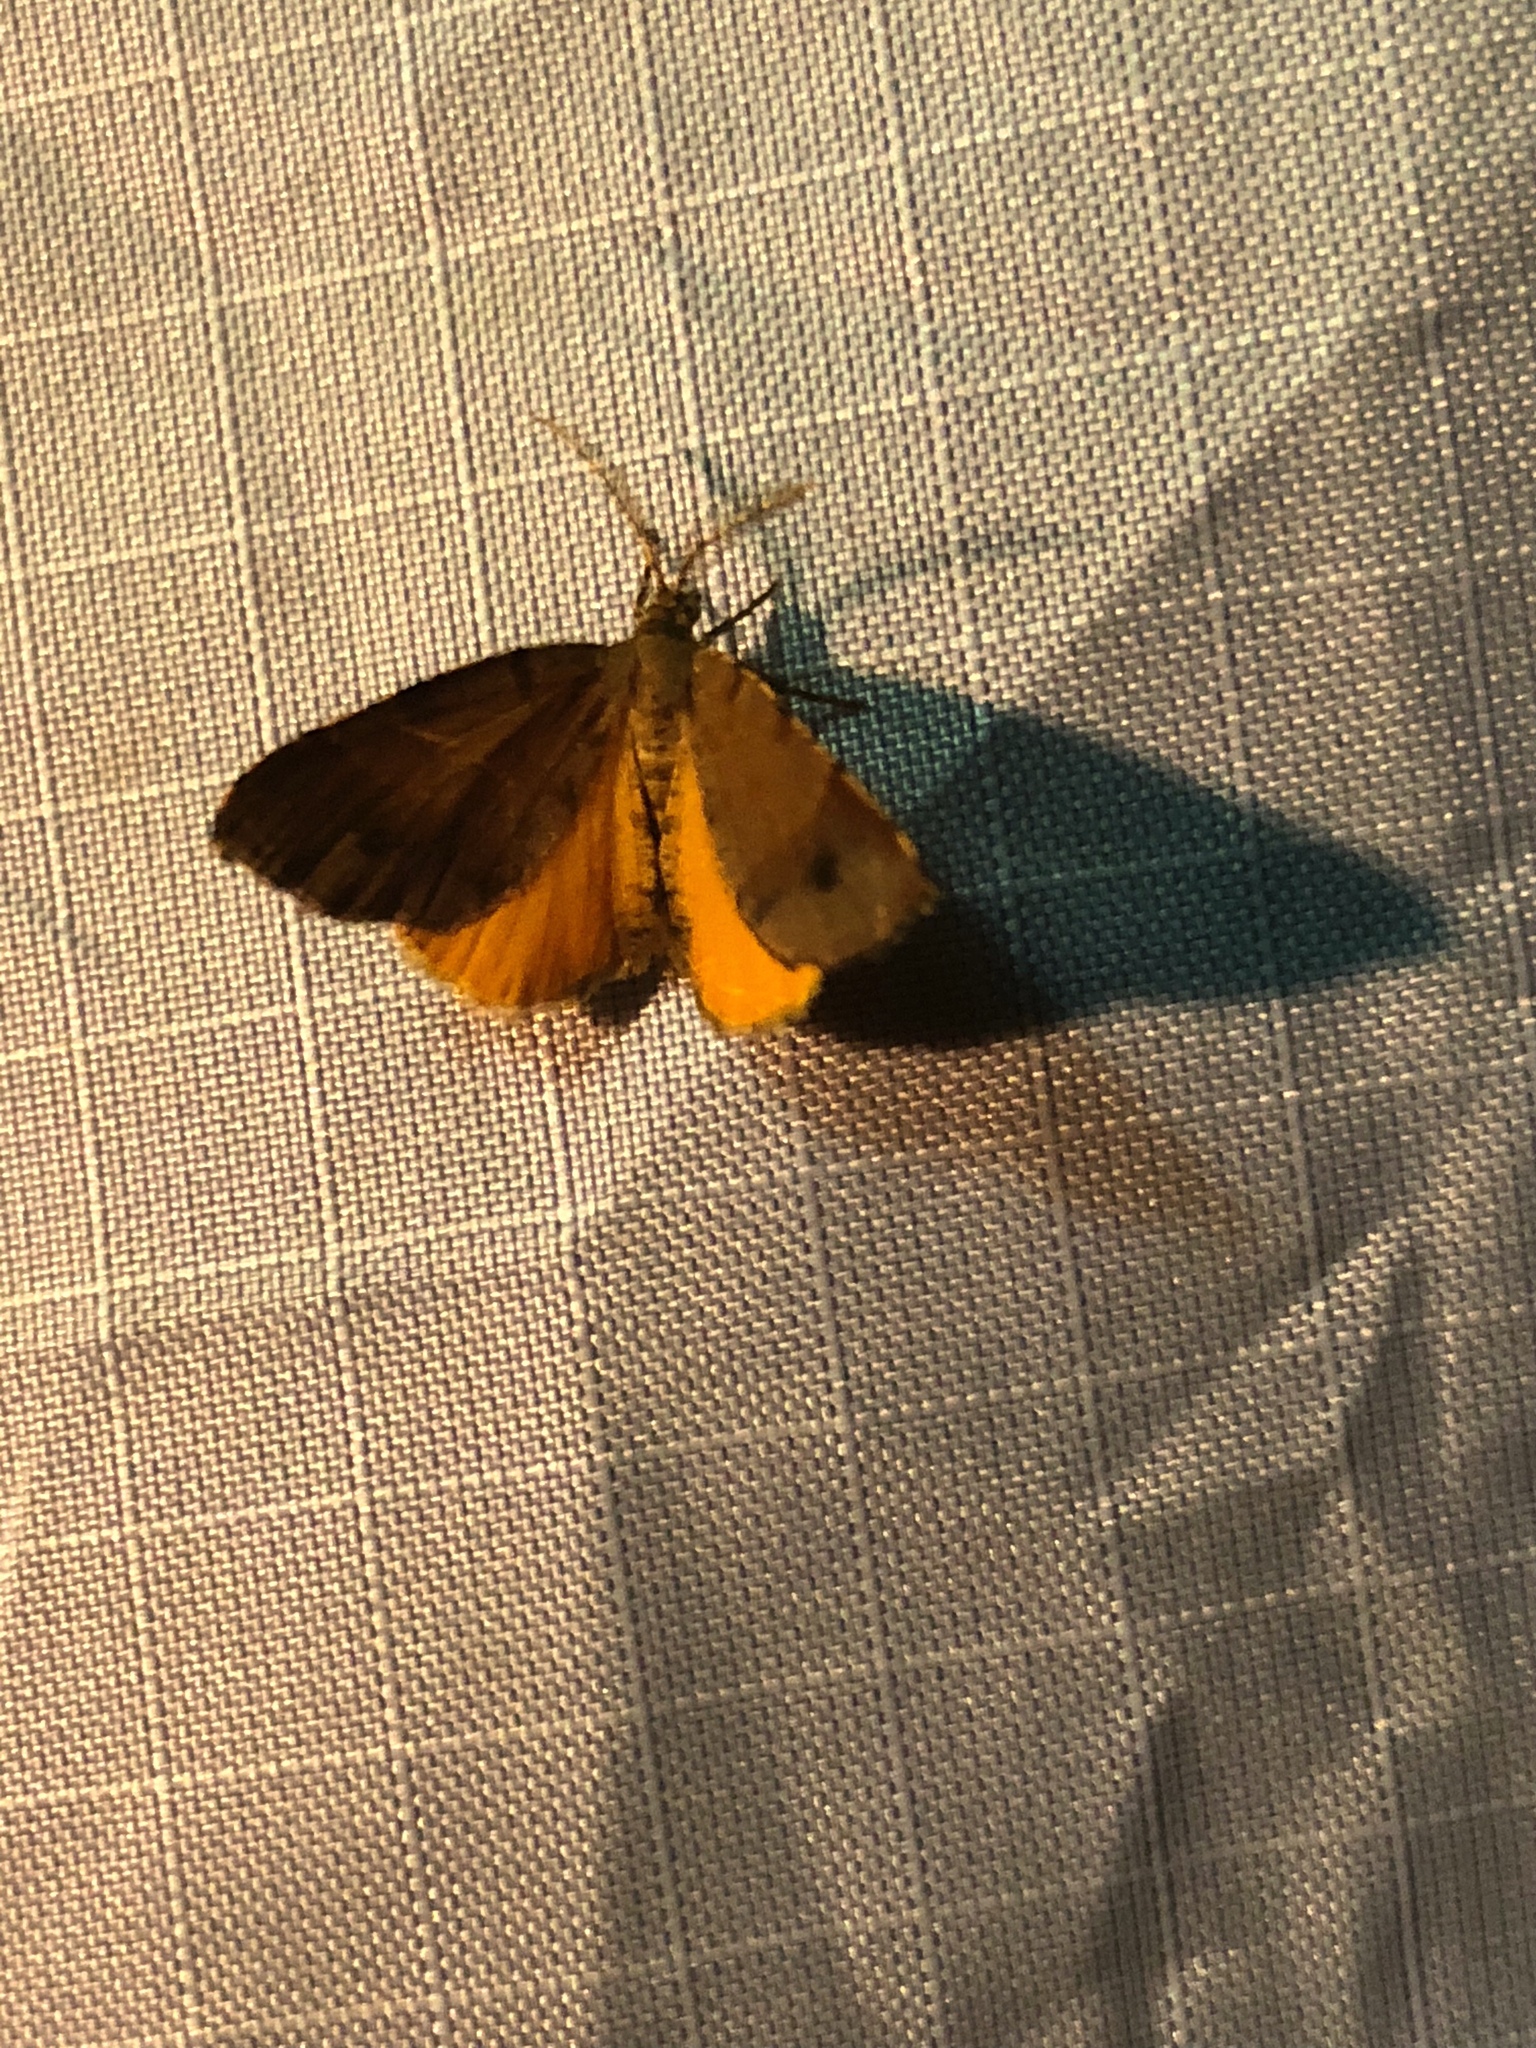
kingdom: Animalia
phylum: Arthropoda
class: Insecta
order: Lepidoptera
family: Geometridae
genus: Mellilla
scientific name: Mellilla xanthometata
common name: Orange wing moth
